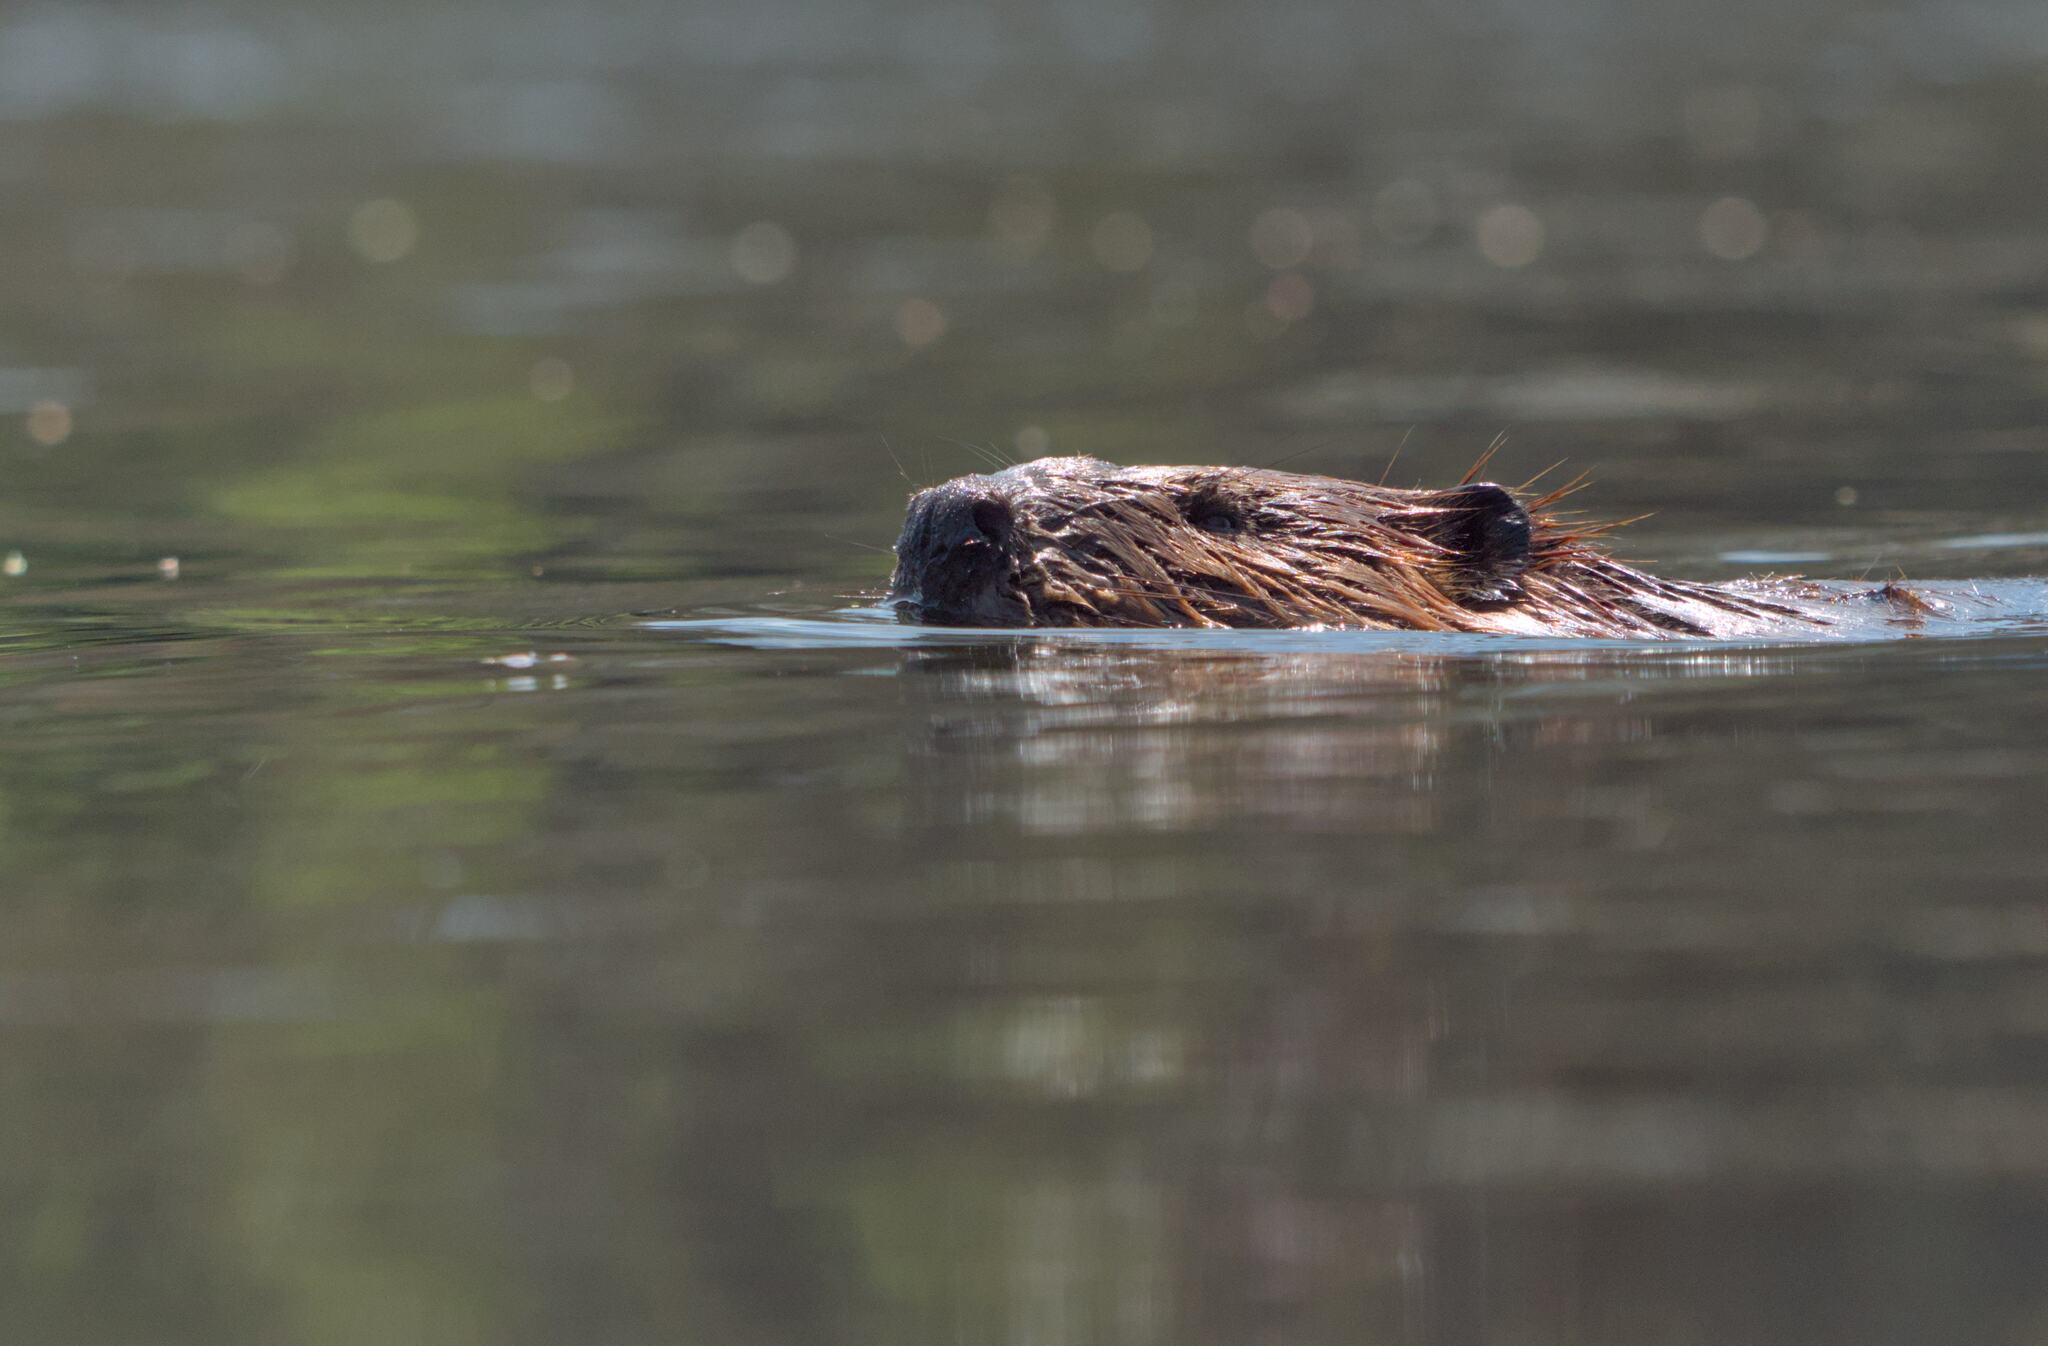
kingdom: Animalia
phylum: Chordata
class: Mammalia
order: Rodentia
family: Castoridae
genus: Castor
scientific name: Castor canadensis
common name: American beaver
